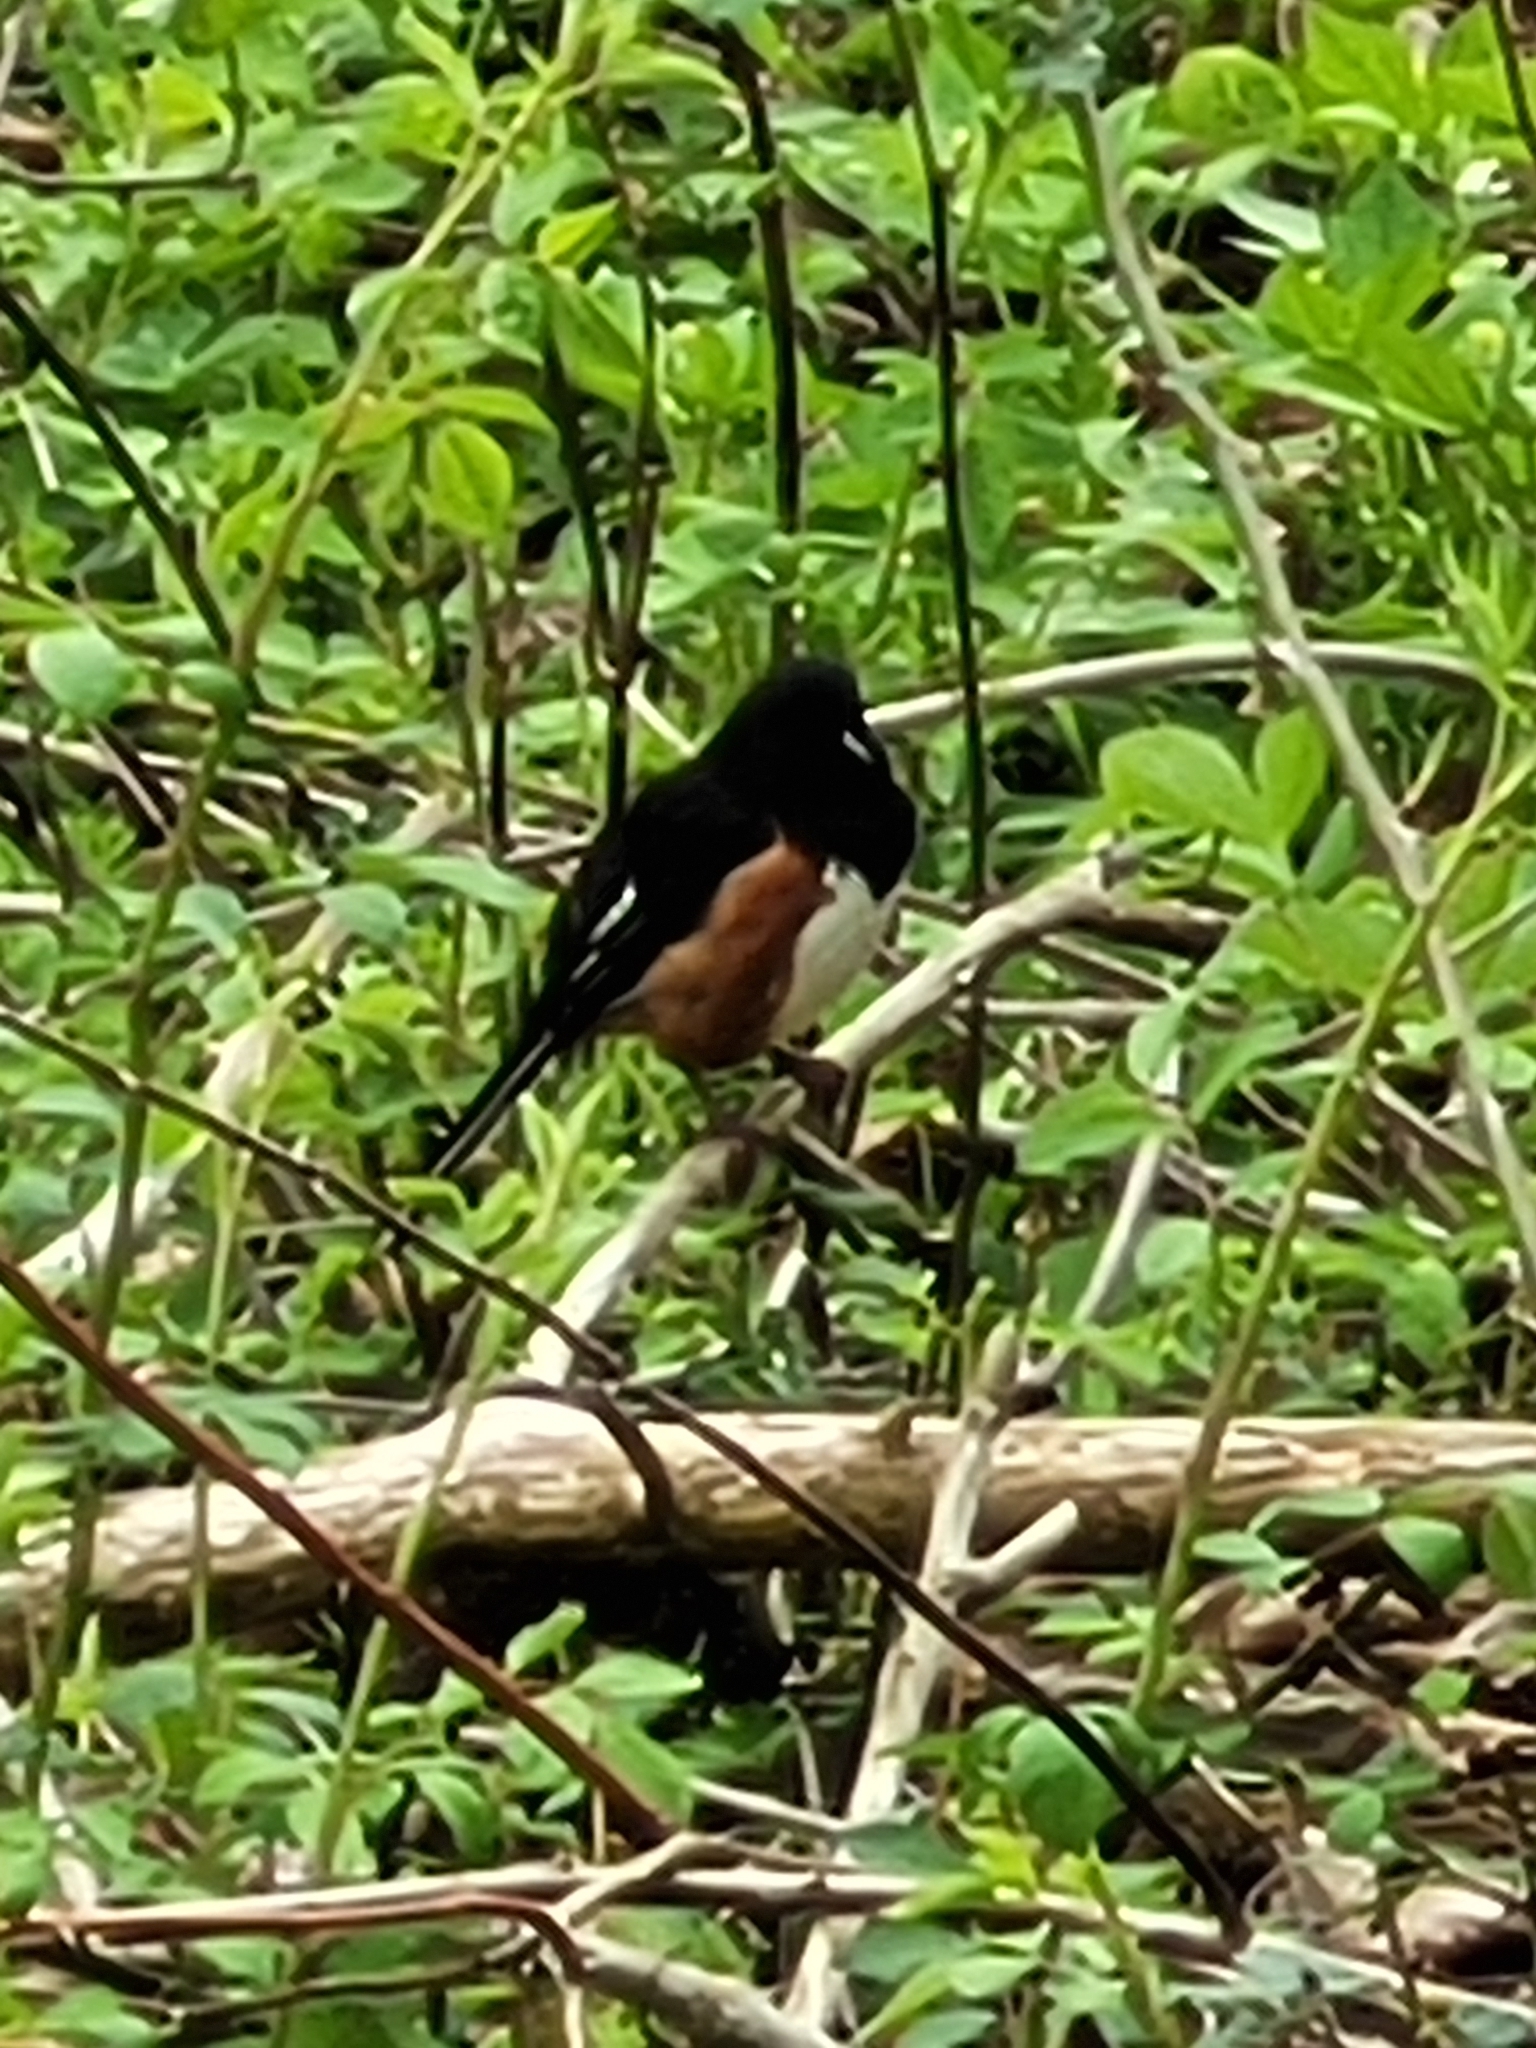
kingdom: Animalia
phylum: Chordata
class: Aves
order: Passeriformes
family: Passerellidae
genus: Pipilo
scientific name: Pipilo erythrophthalmus
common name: Eastern towhee
